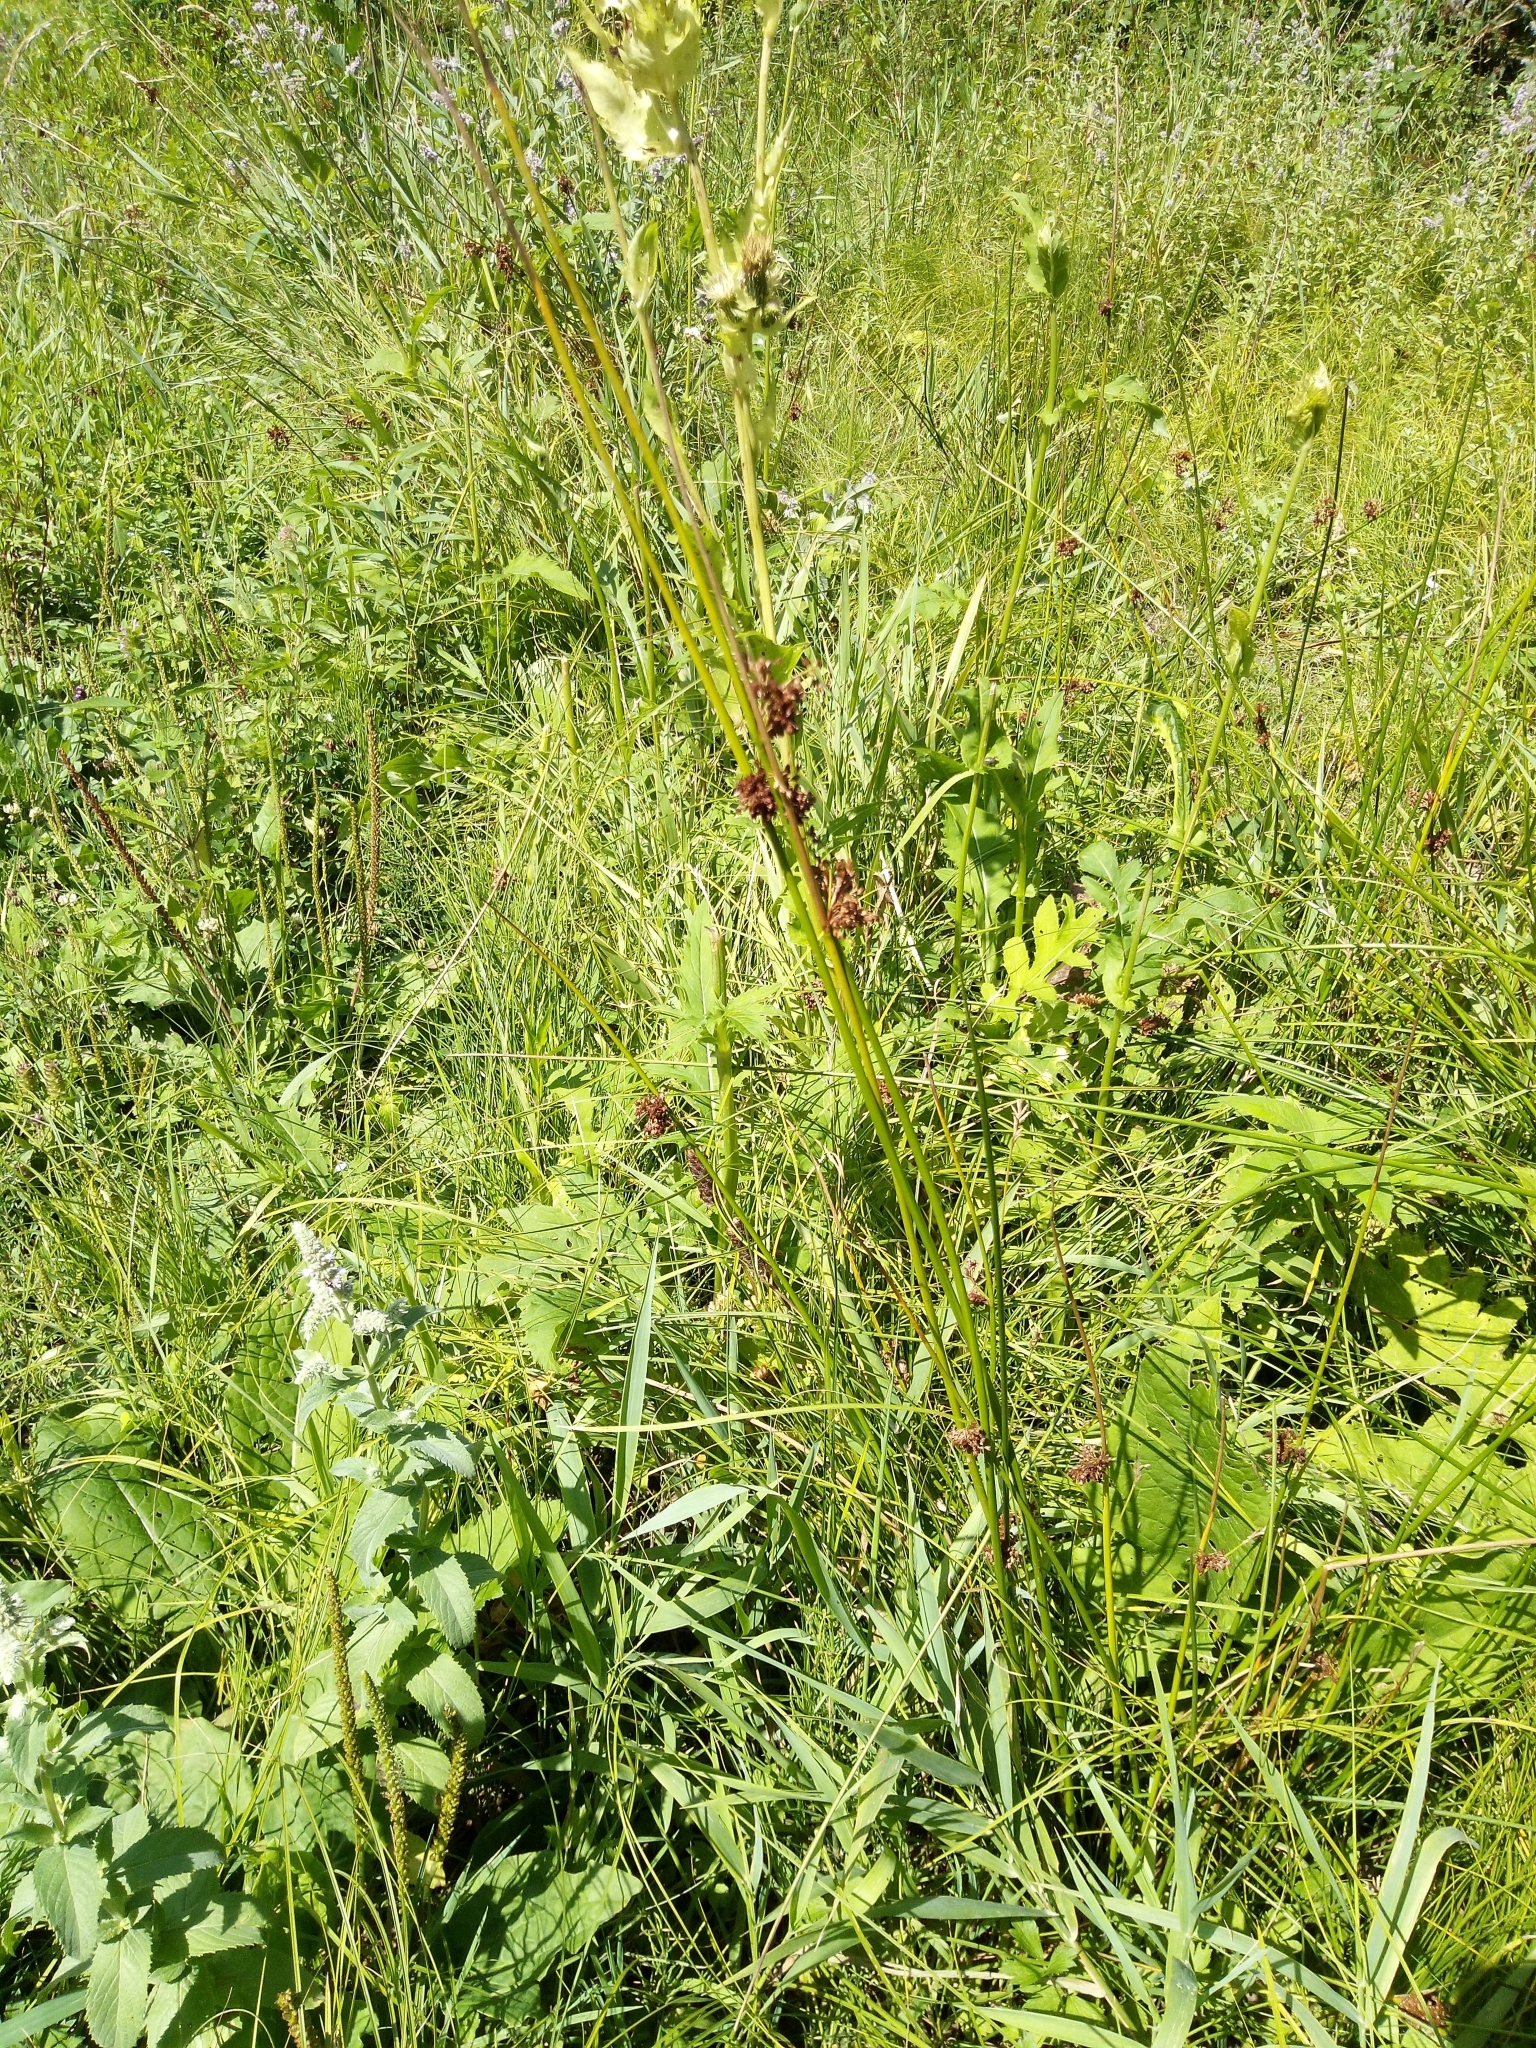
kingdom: Plantae
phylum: Tracheophyta
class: Liliopsida
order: Poales
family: Juncaceae
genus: Juncus
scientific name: Juncus effusus
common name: Soft rush
